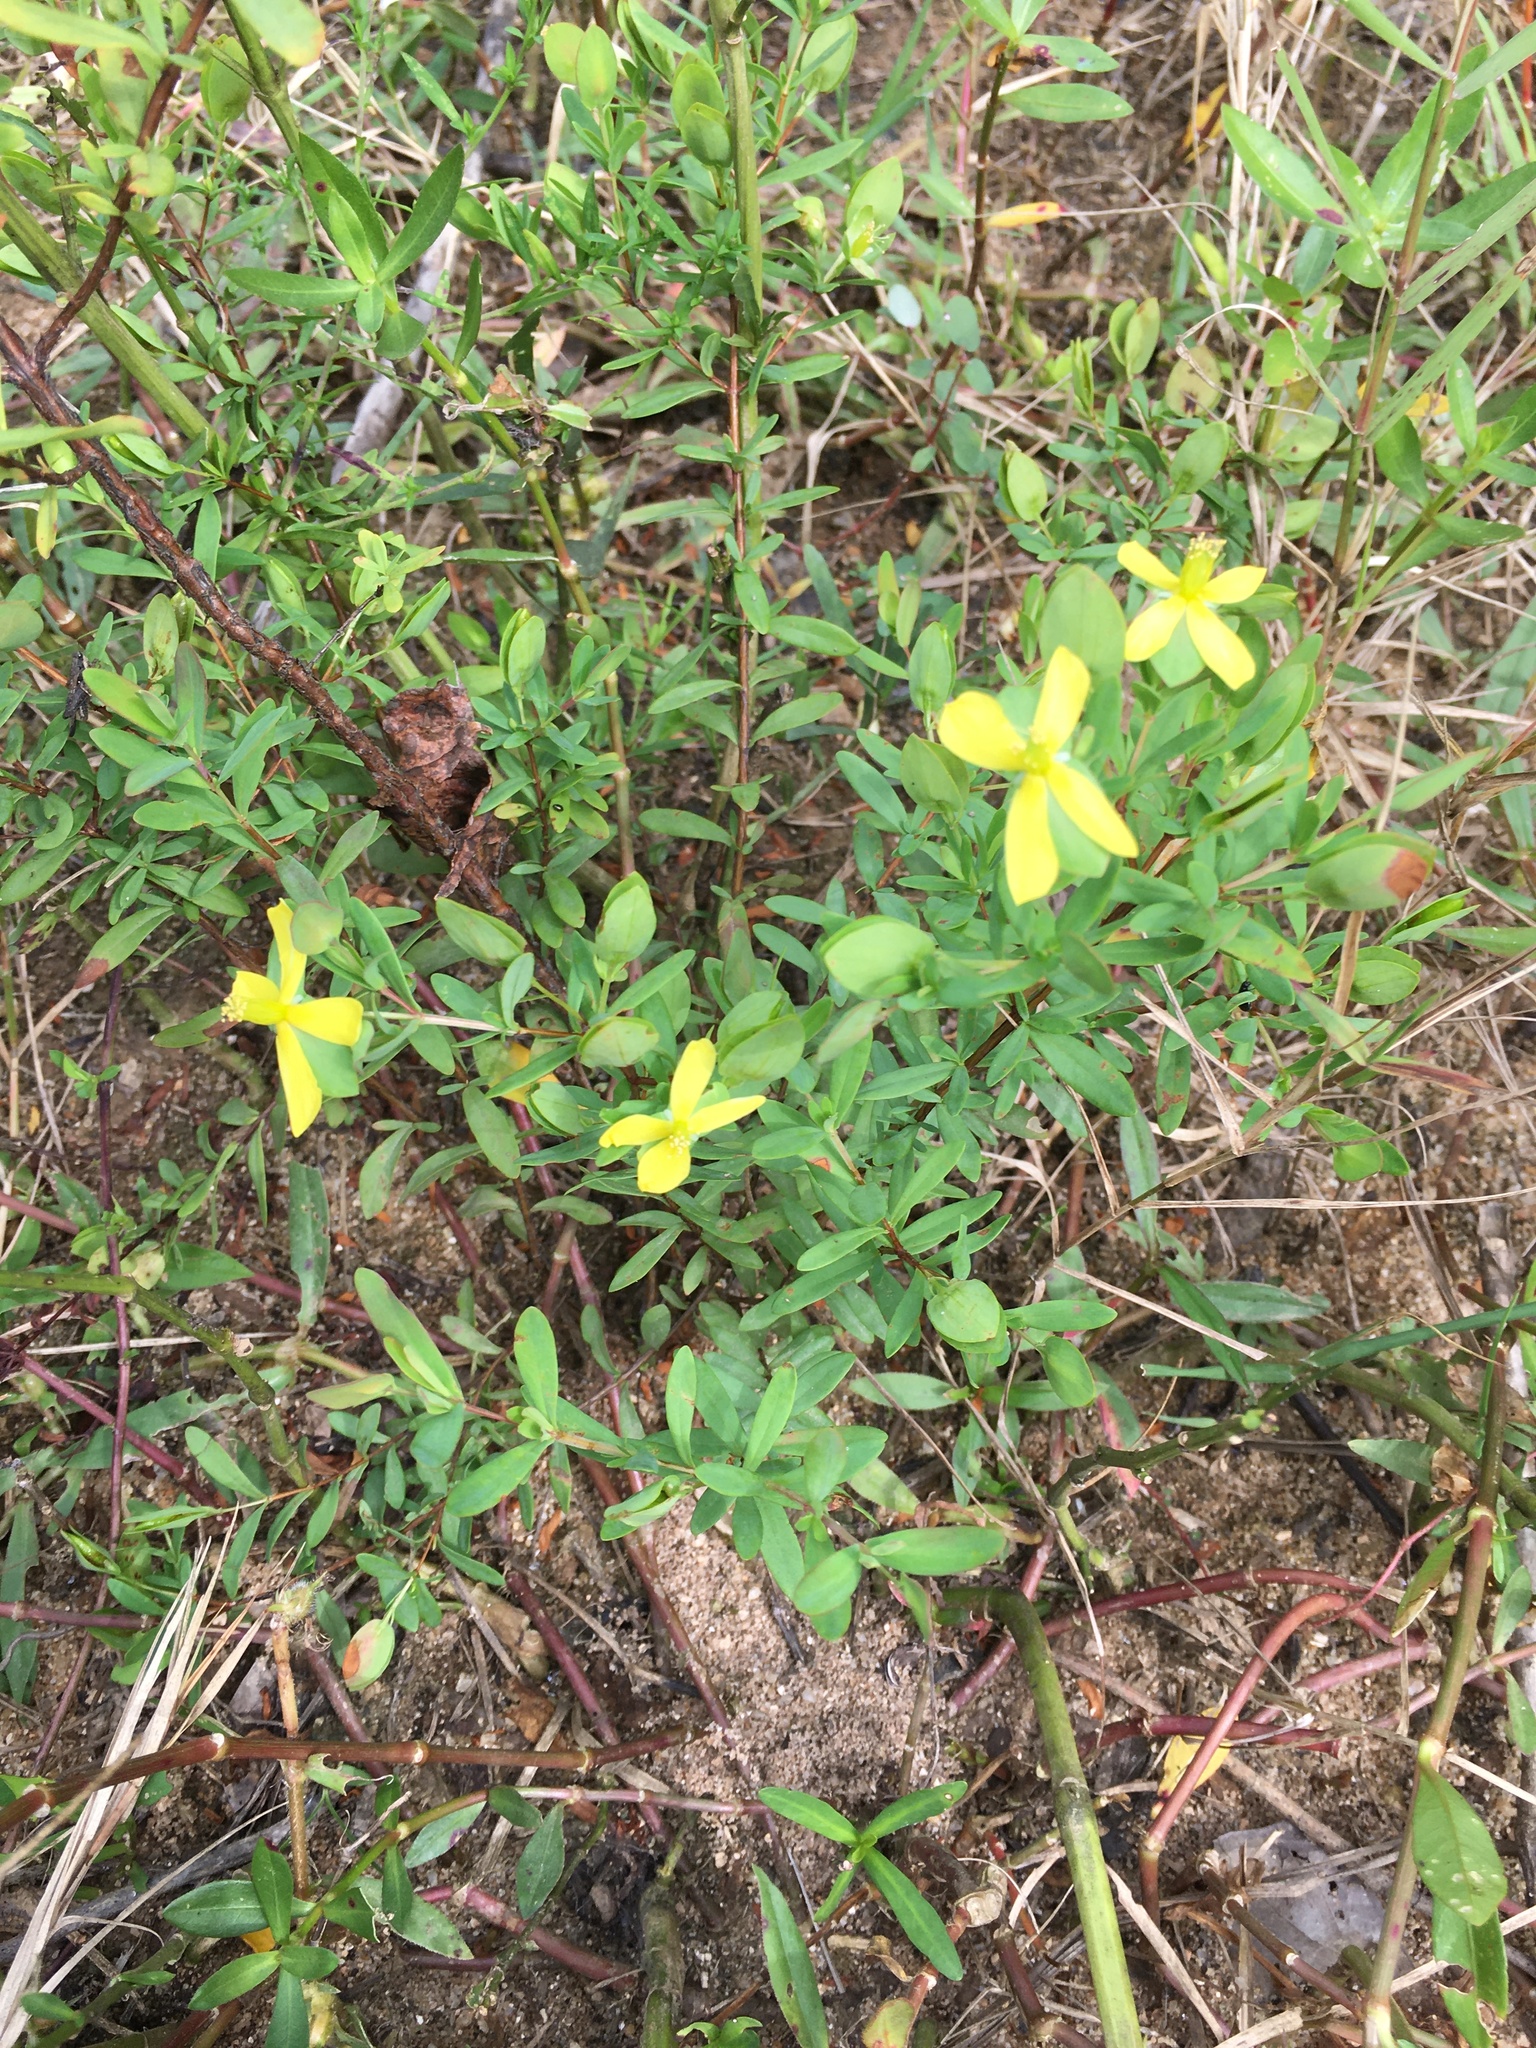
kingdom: Plantae
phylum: Tracheophyta
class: Magnoliopsida
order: Malpighiales
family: Hypericaceae
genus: Hypericum
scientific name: Hypericum hypericoides
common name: St. andrew's cross
